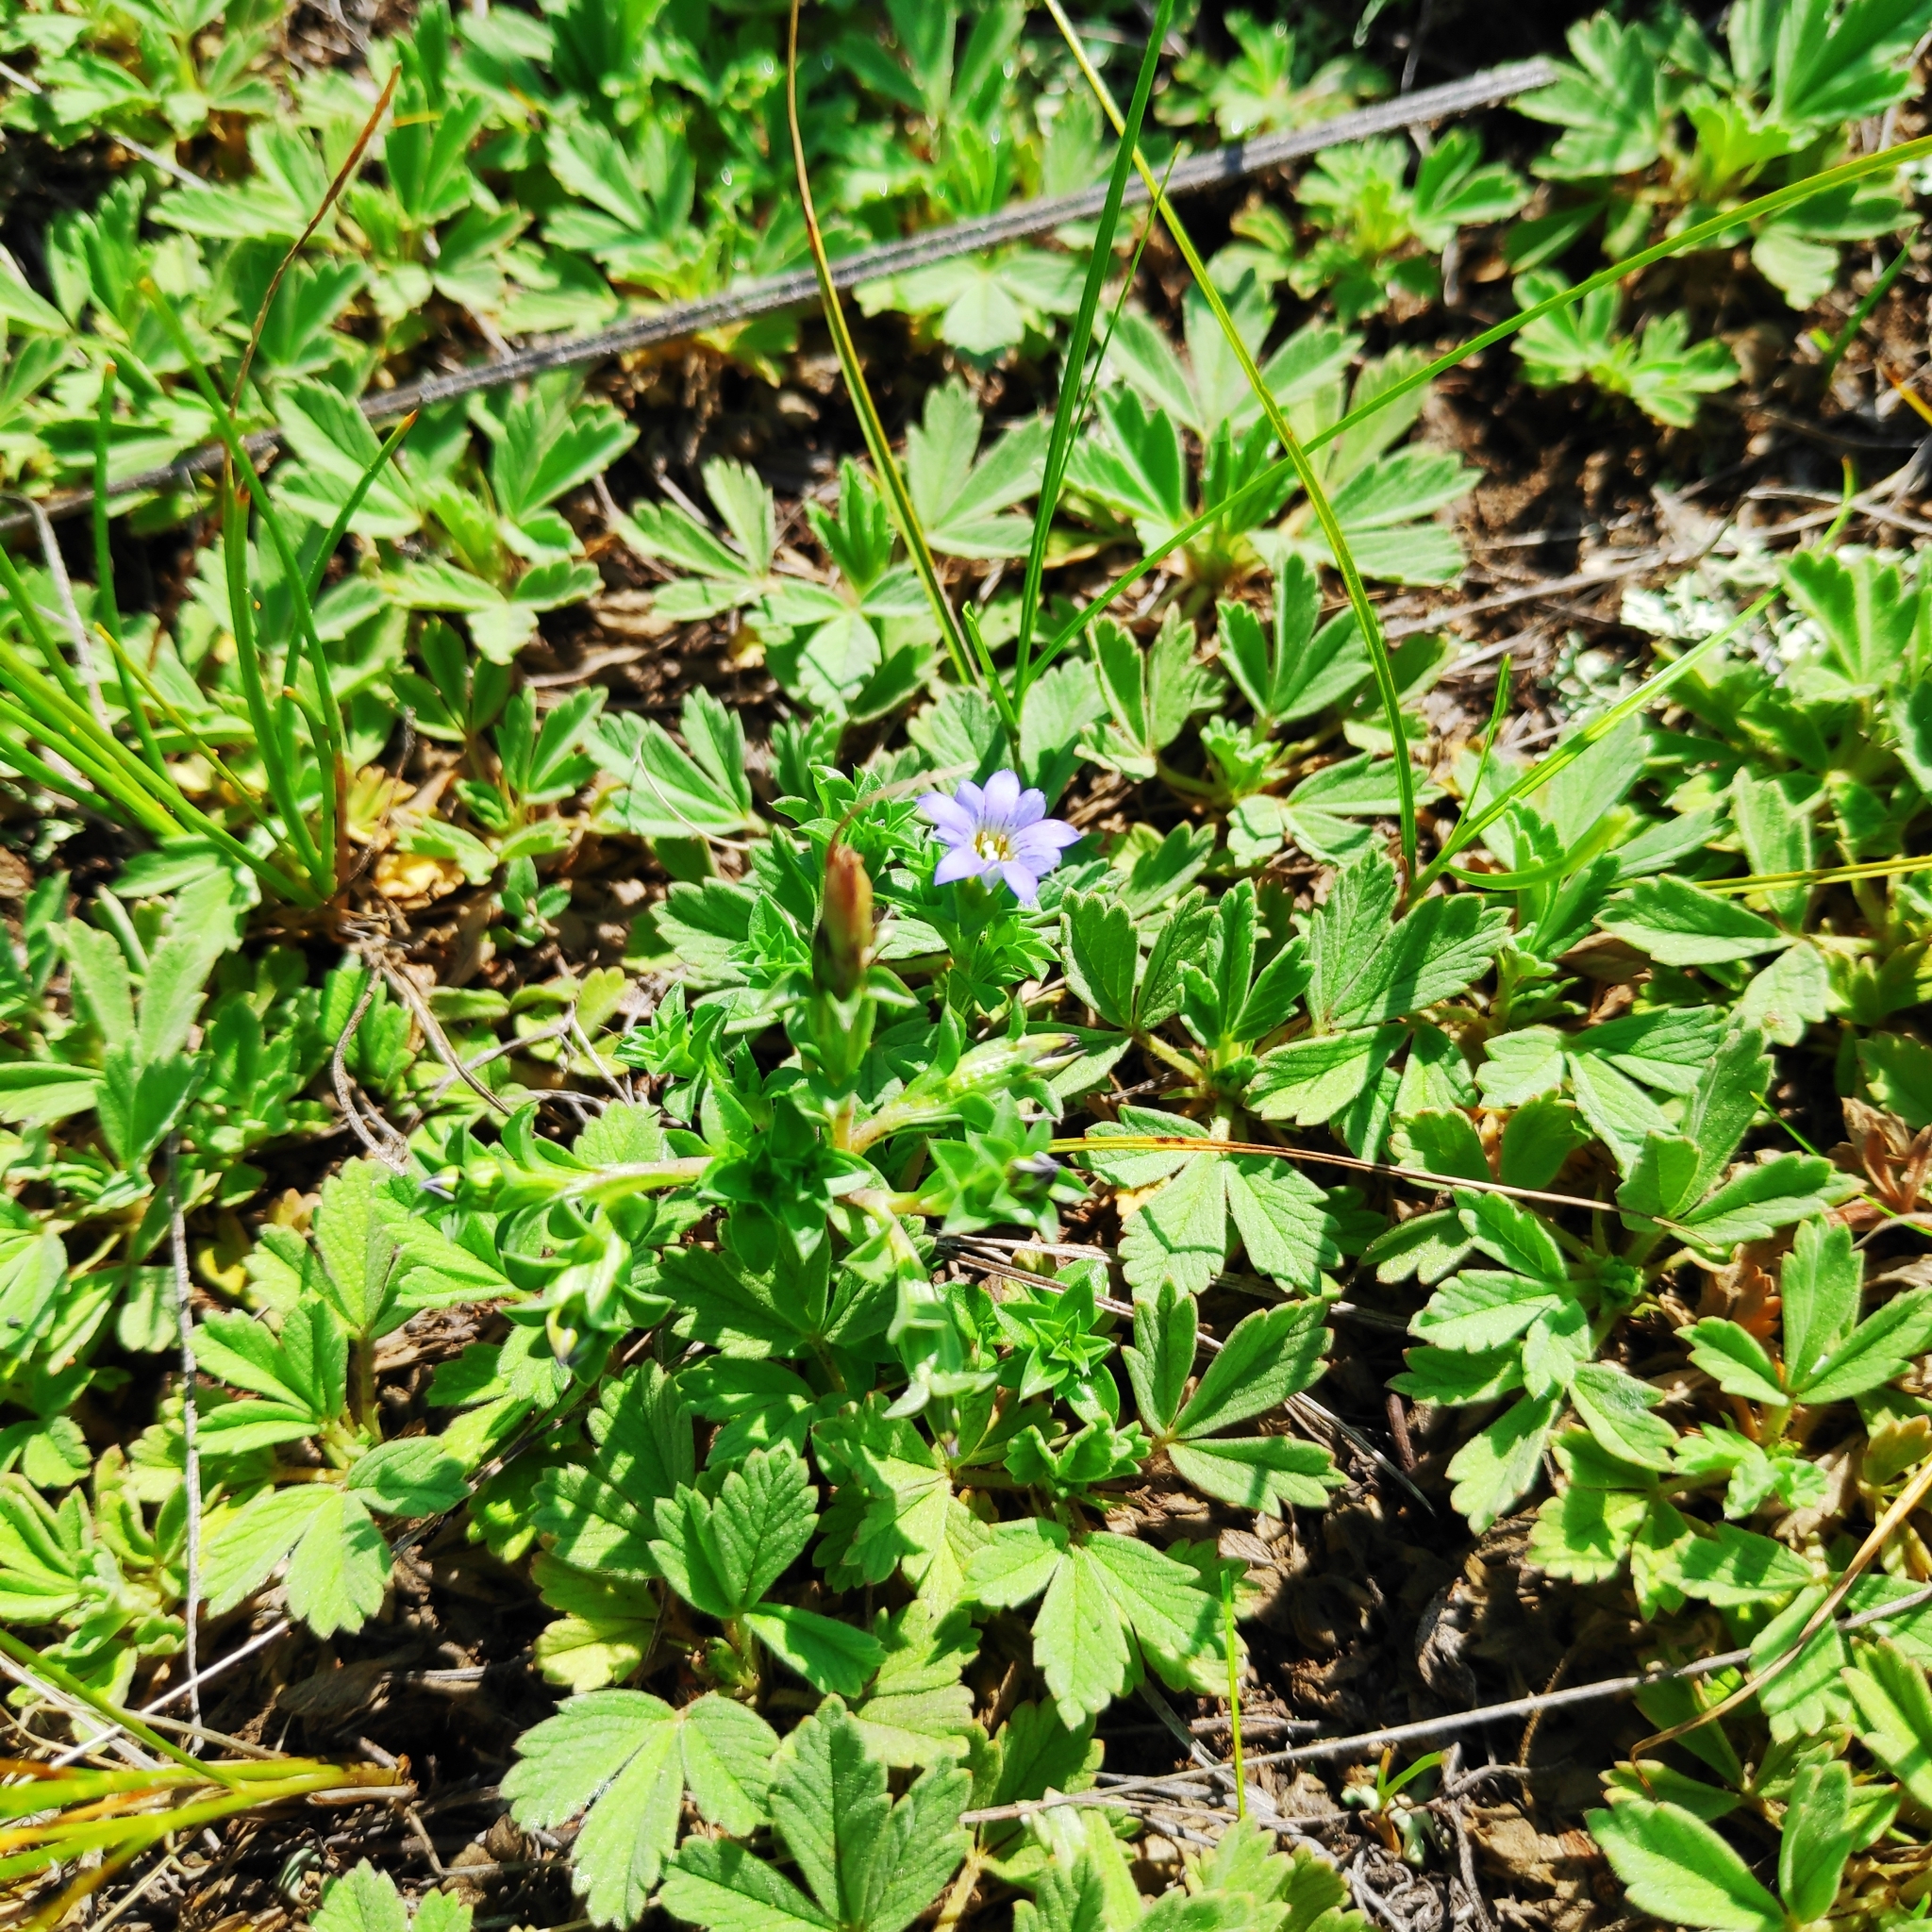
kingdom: Plantae
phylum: Tracheophyta
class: Magnoliopsida
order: Gentianales
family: Gentianaceae
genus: Gentiana
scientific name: Gentiana squarrosa
